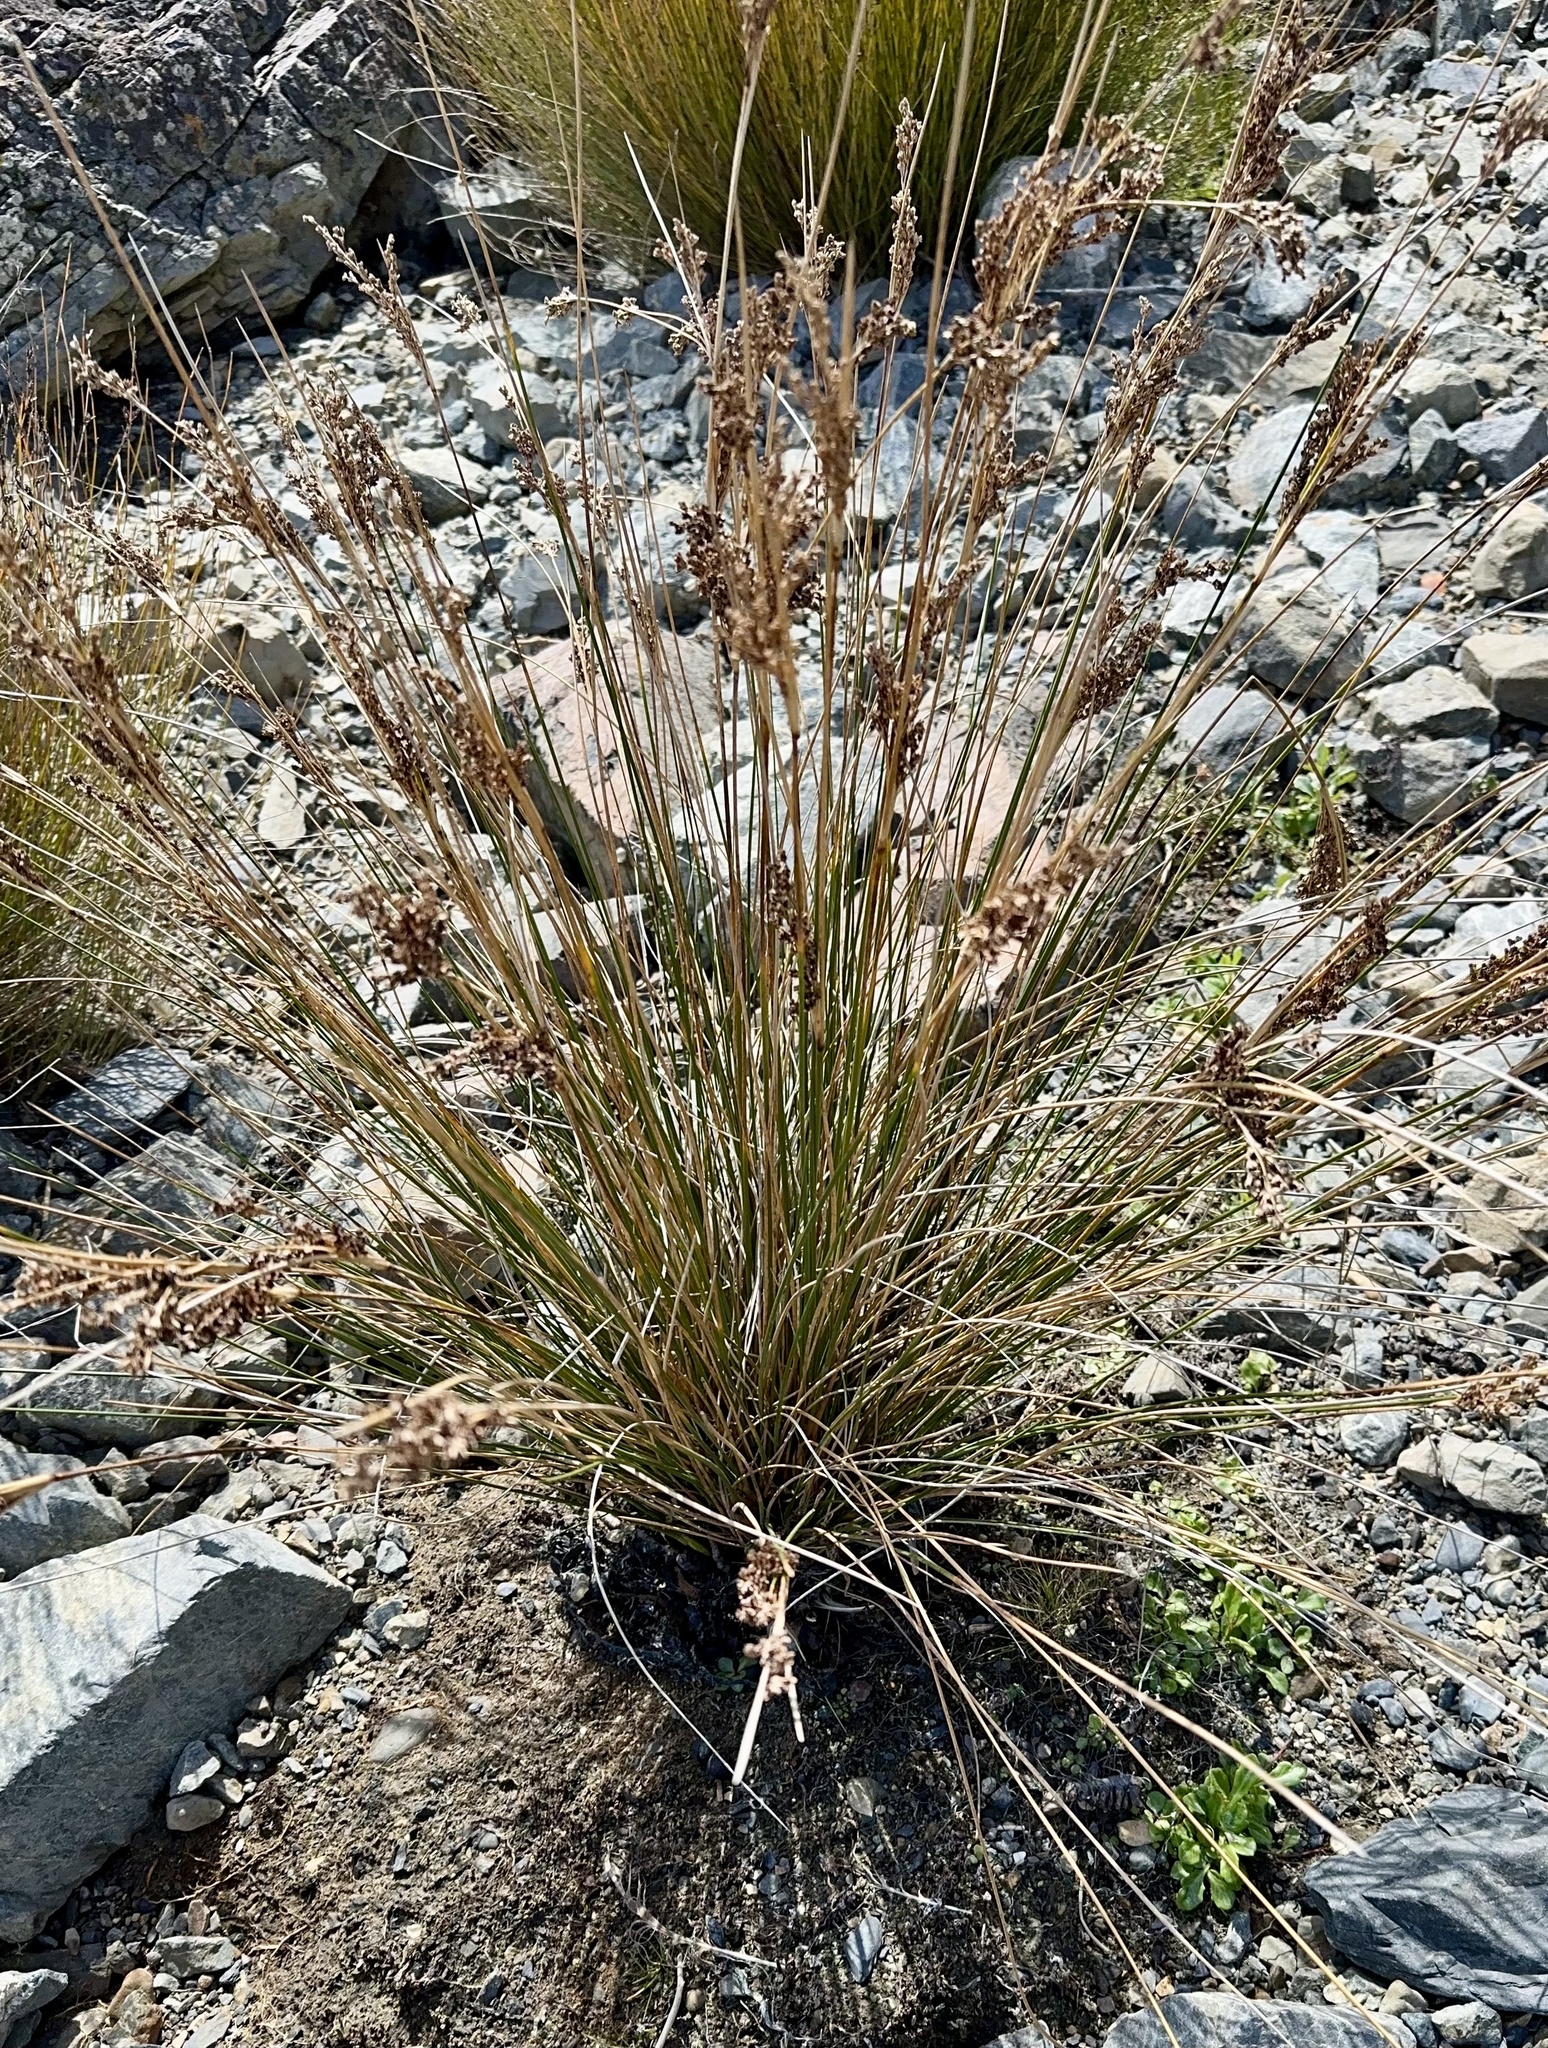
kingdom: Plantae
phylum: Tracheophyta
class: Liliopsida
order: Poales
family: Juncaceae
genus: Juncus
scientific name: Juncus kraussii
